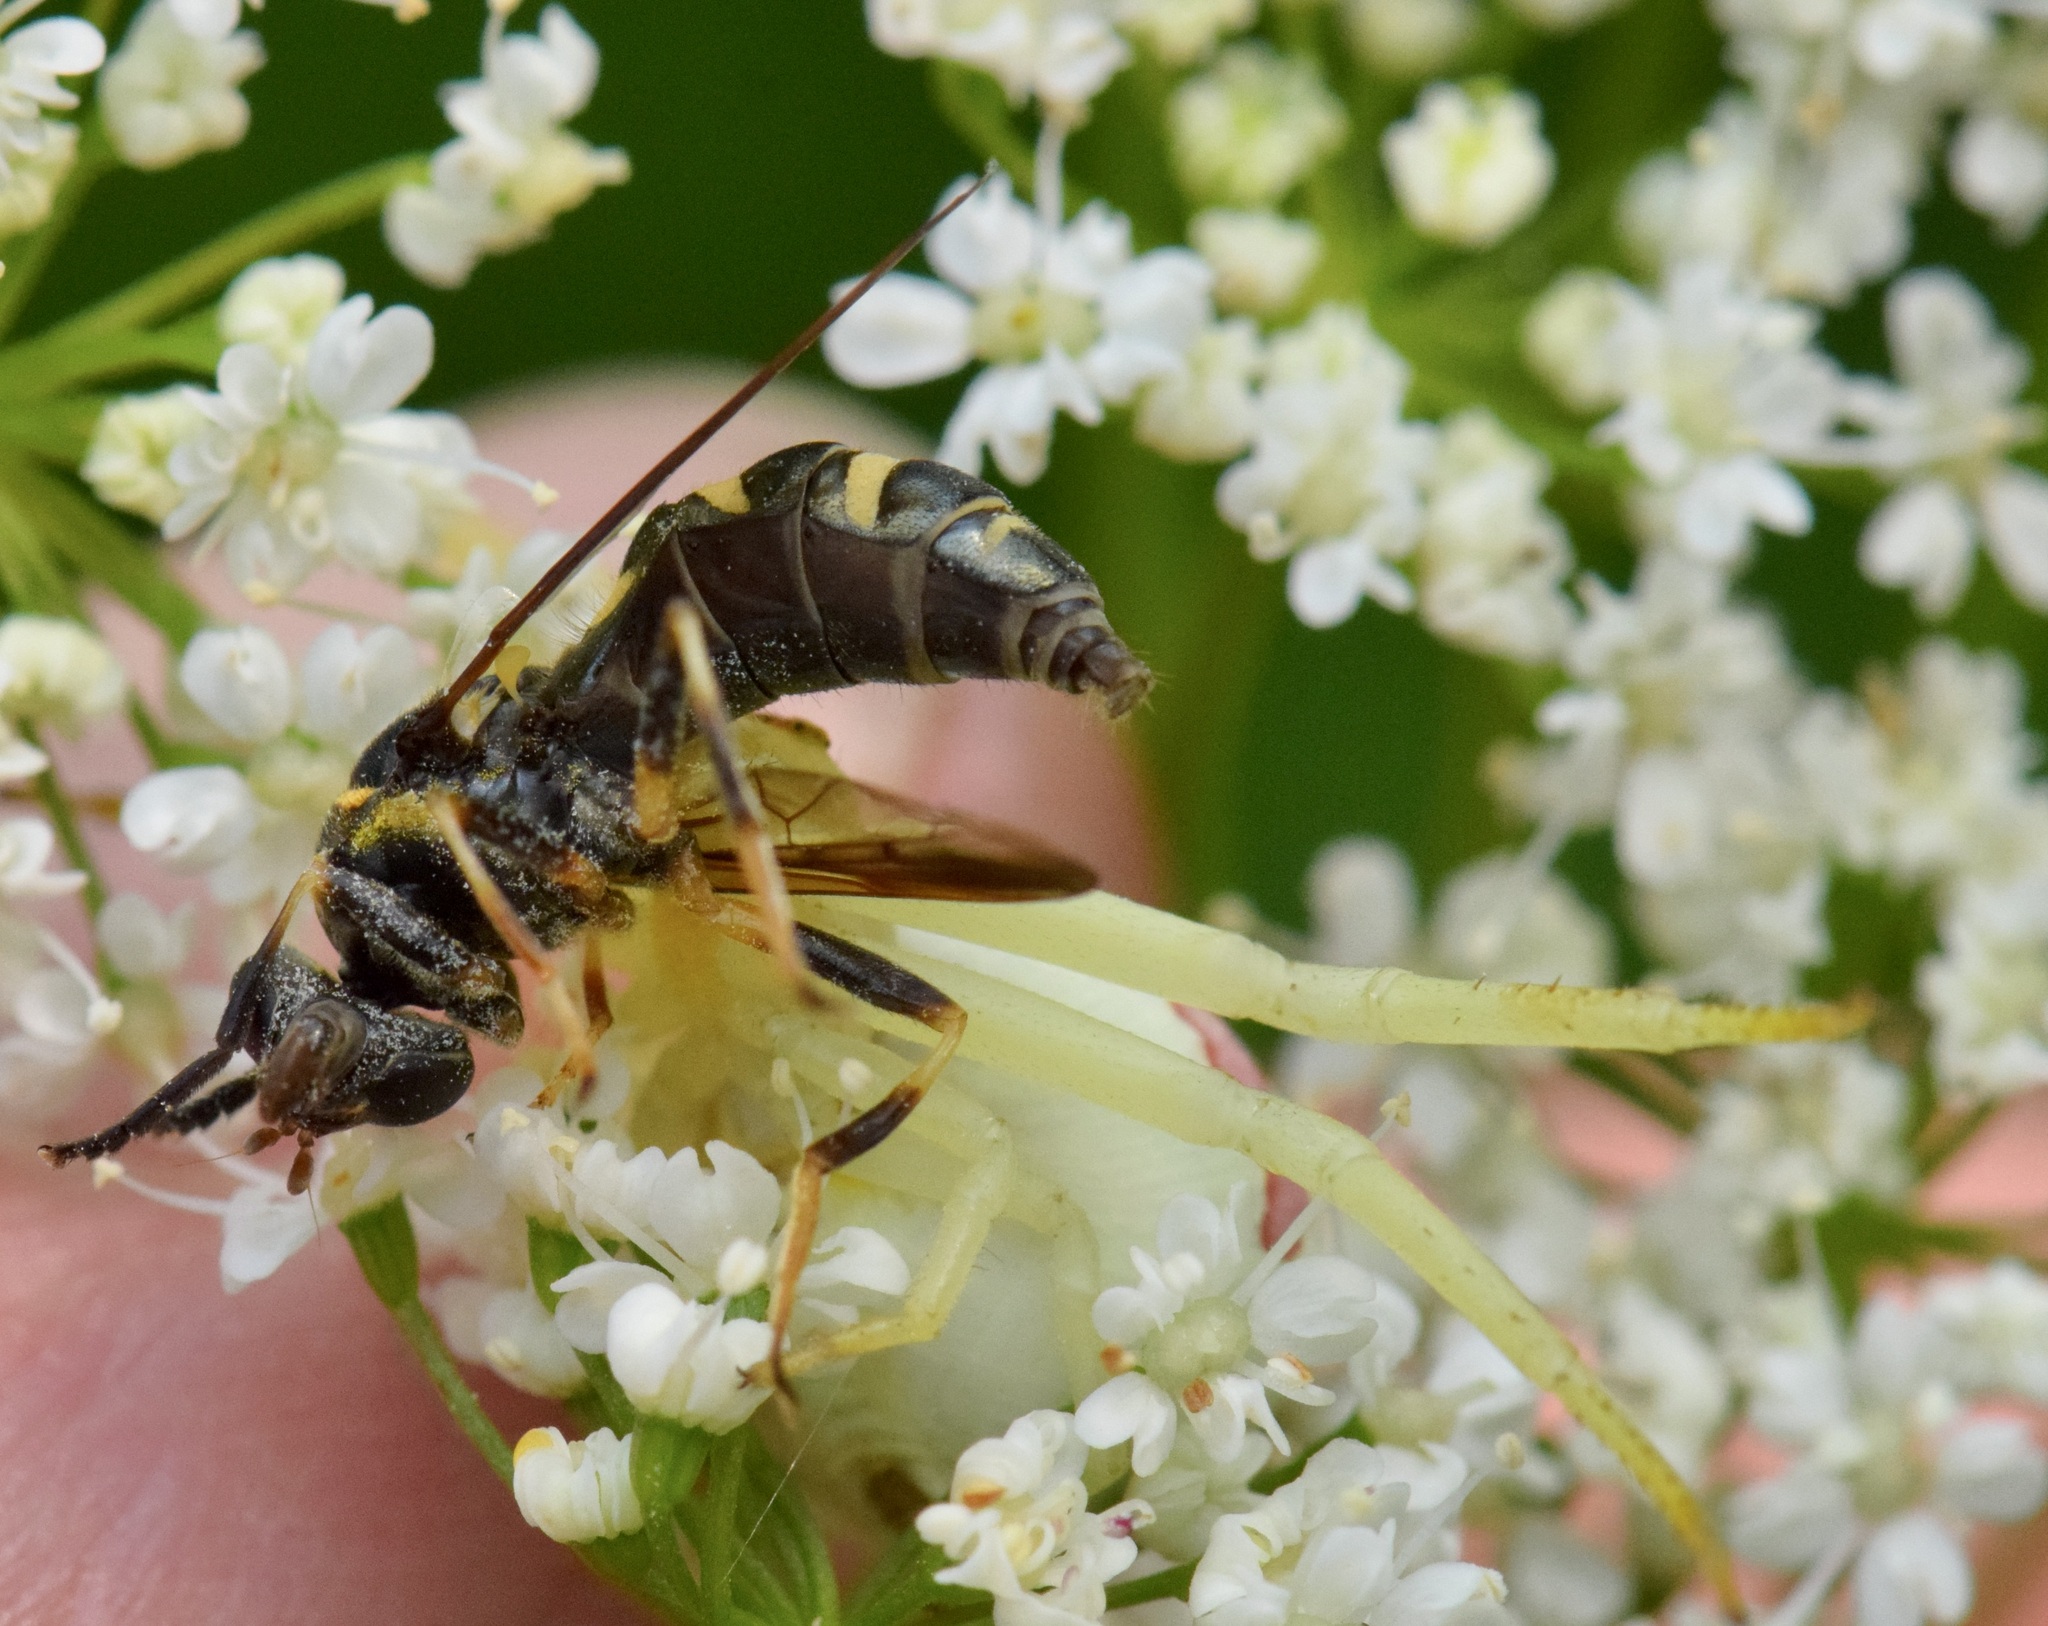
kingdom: Animalia
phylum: Arthropoda
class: Arachnida
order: Araneae
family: Thomisidae
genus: Misumena
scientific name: Misumena vatia
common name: Goldenrod crab spider
